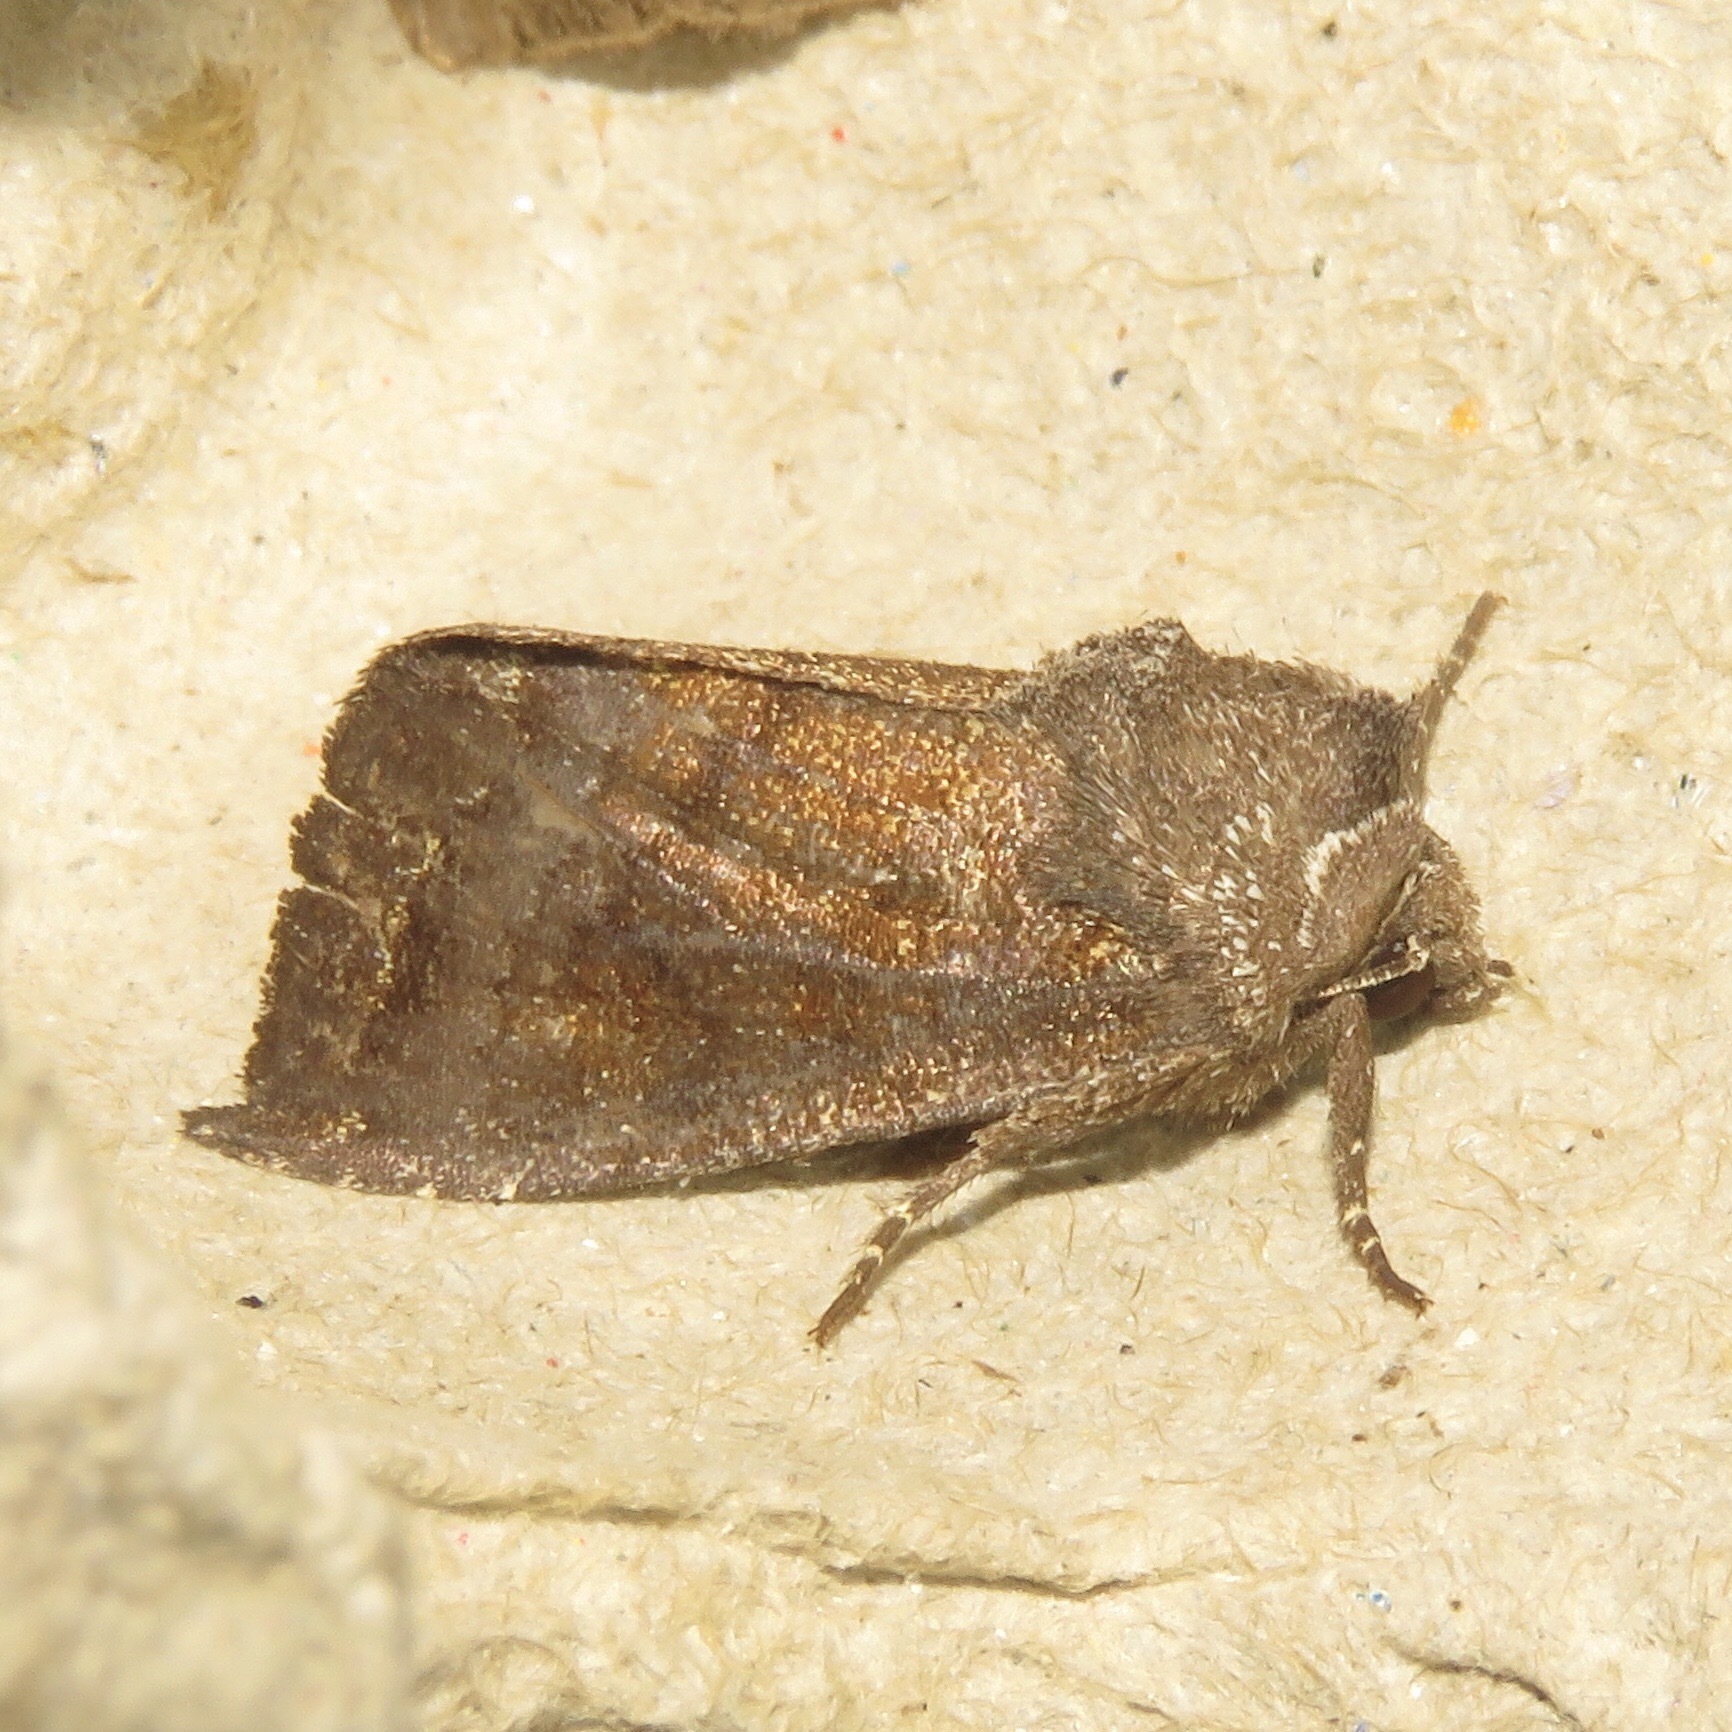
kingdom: Animalia
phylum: Arthropoda
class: Insecta
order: Lepidoptera
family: Noctuidae
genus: Papaipema
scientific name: Papaipema nelita
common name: Coneflower borer moth
